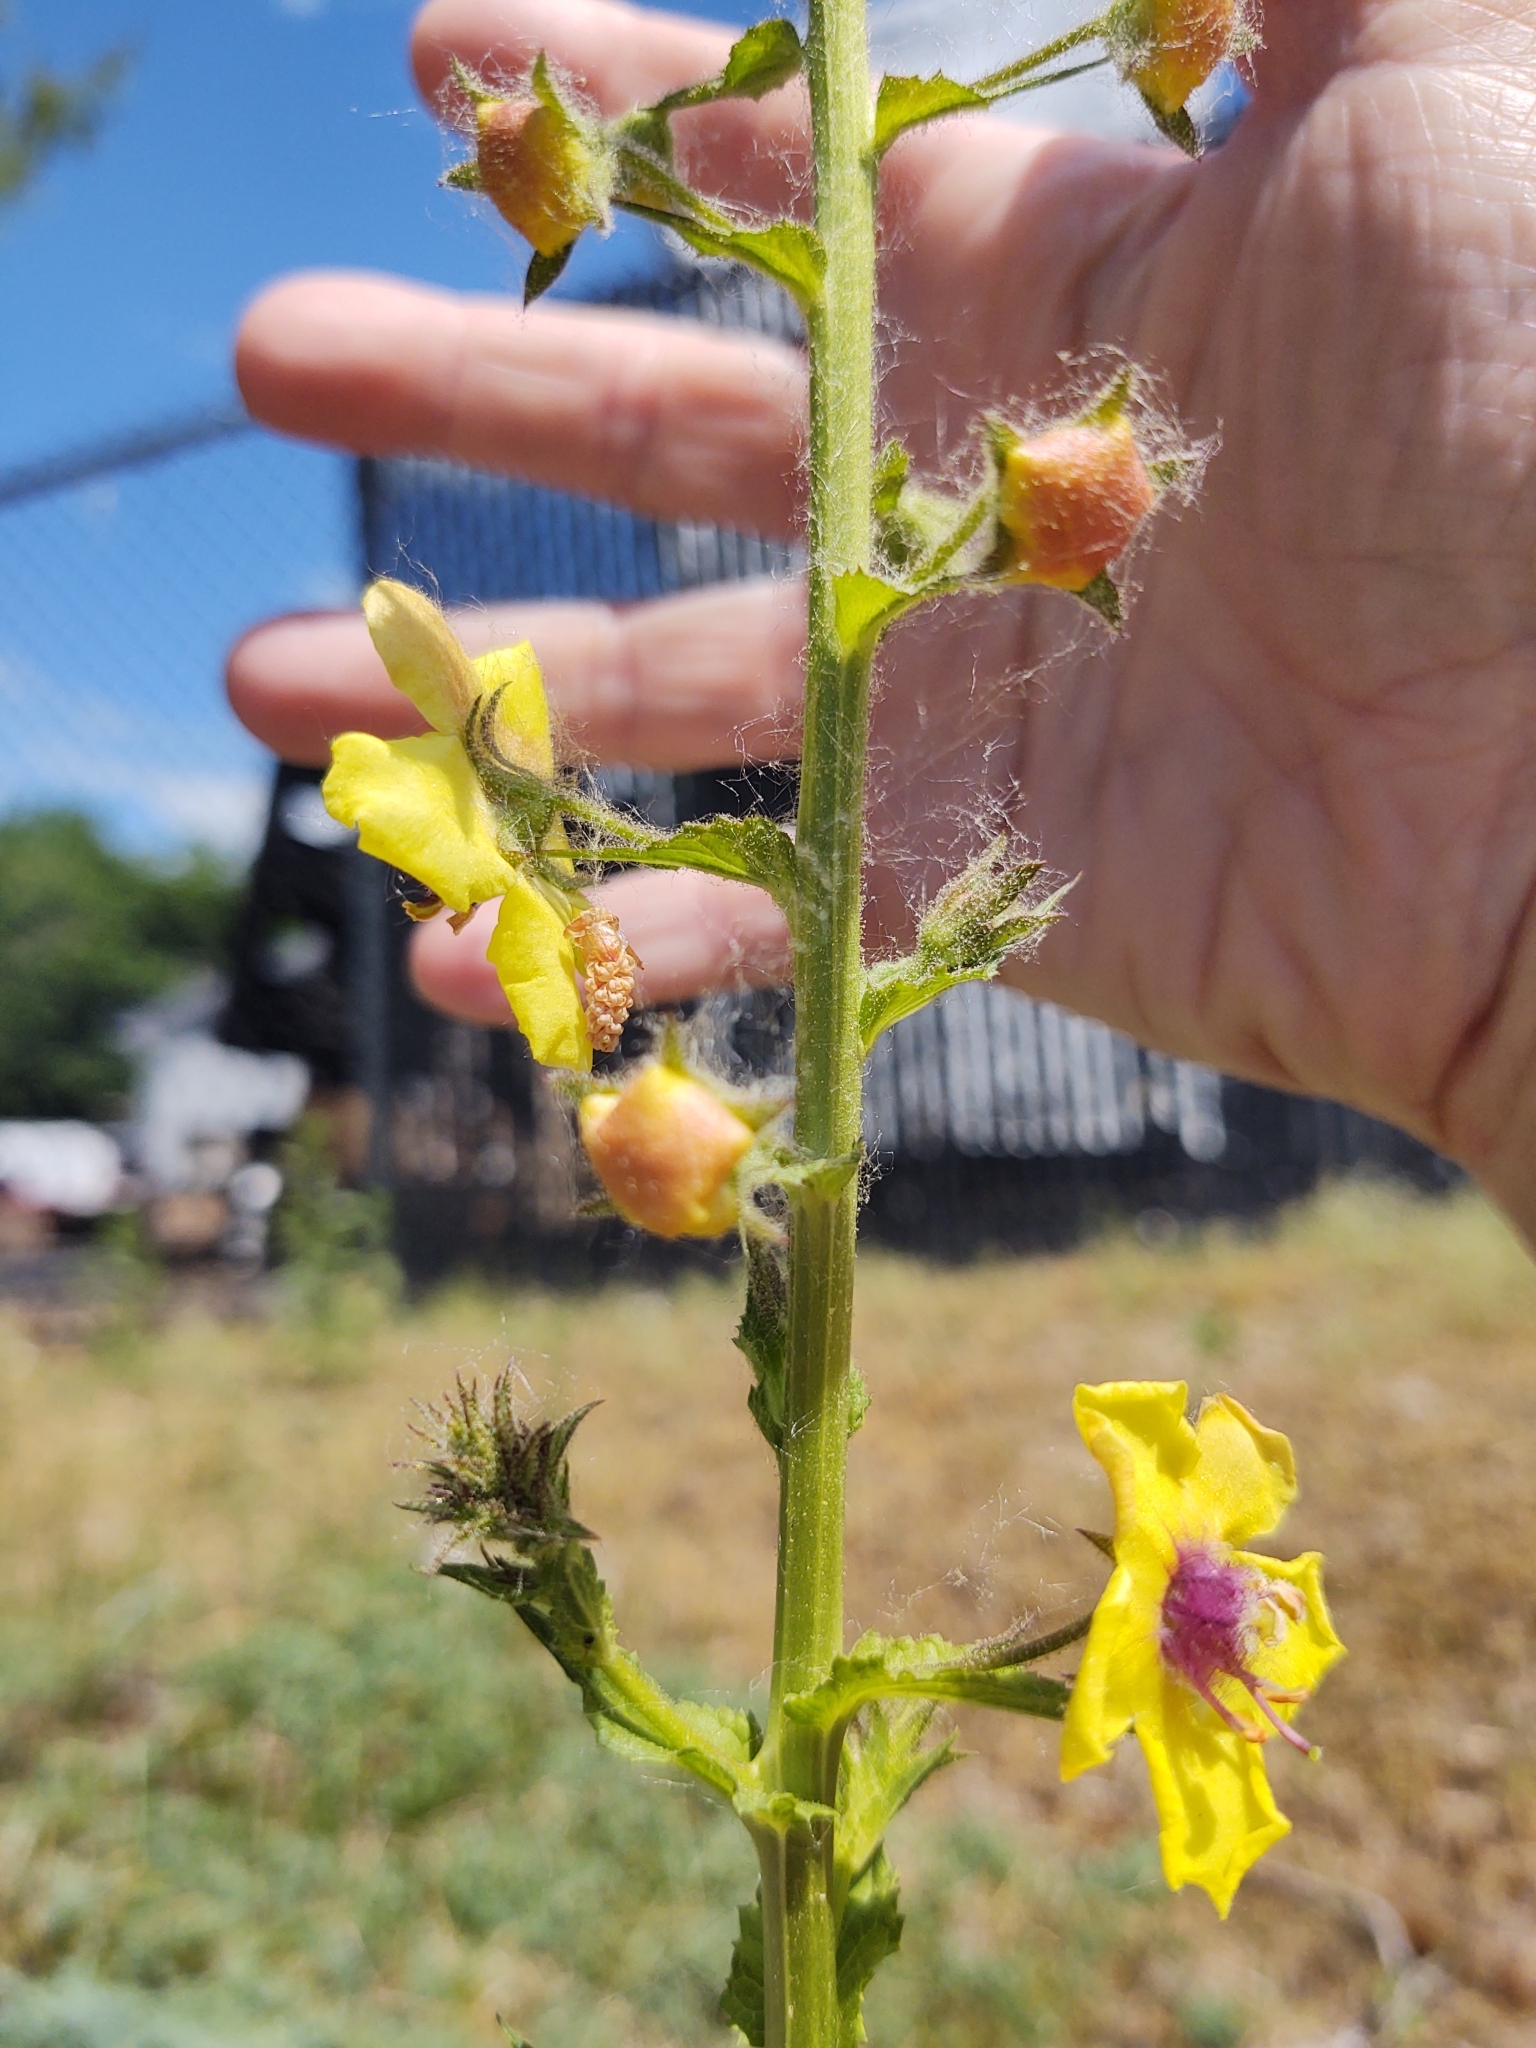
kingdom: Plantae
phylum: Tracheophyta
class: Magnoliopsida
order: Lamiales
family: Scrophulariaceae
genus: Verbascum
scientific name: Verbascum blattaria
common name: Moth mullein
